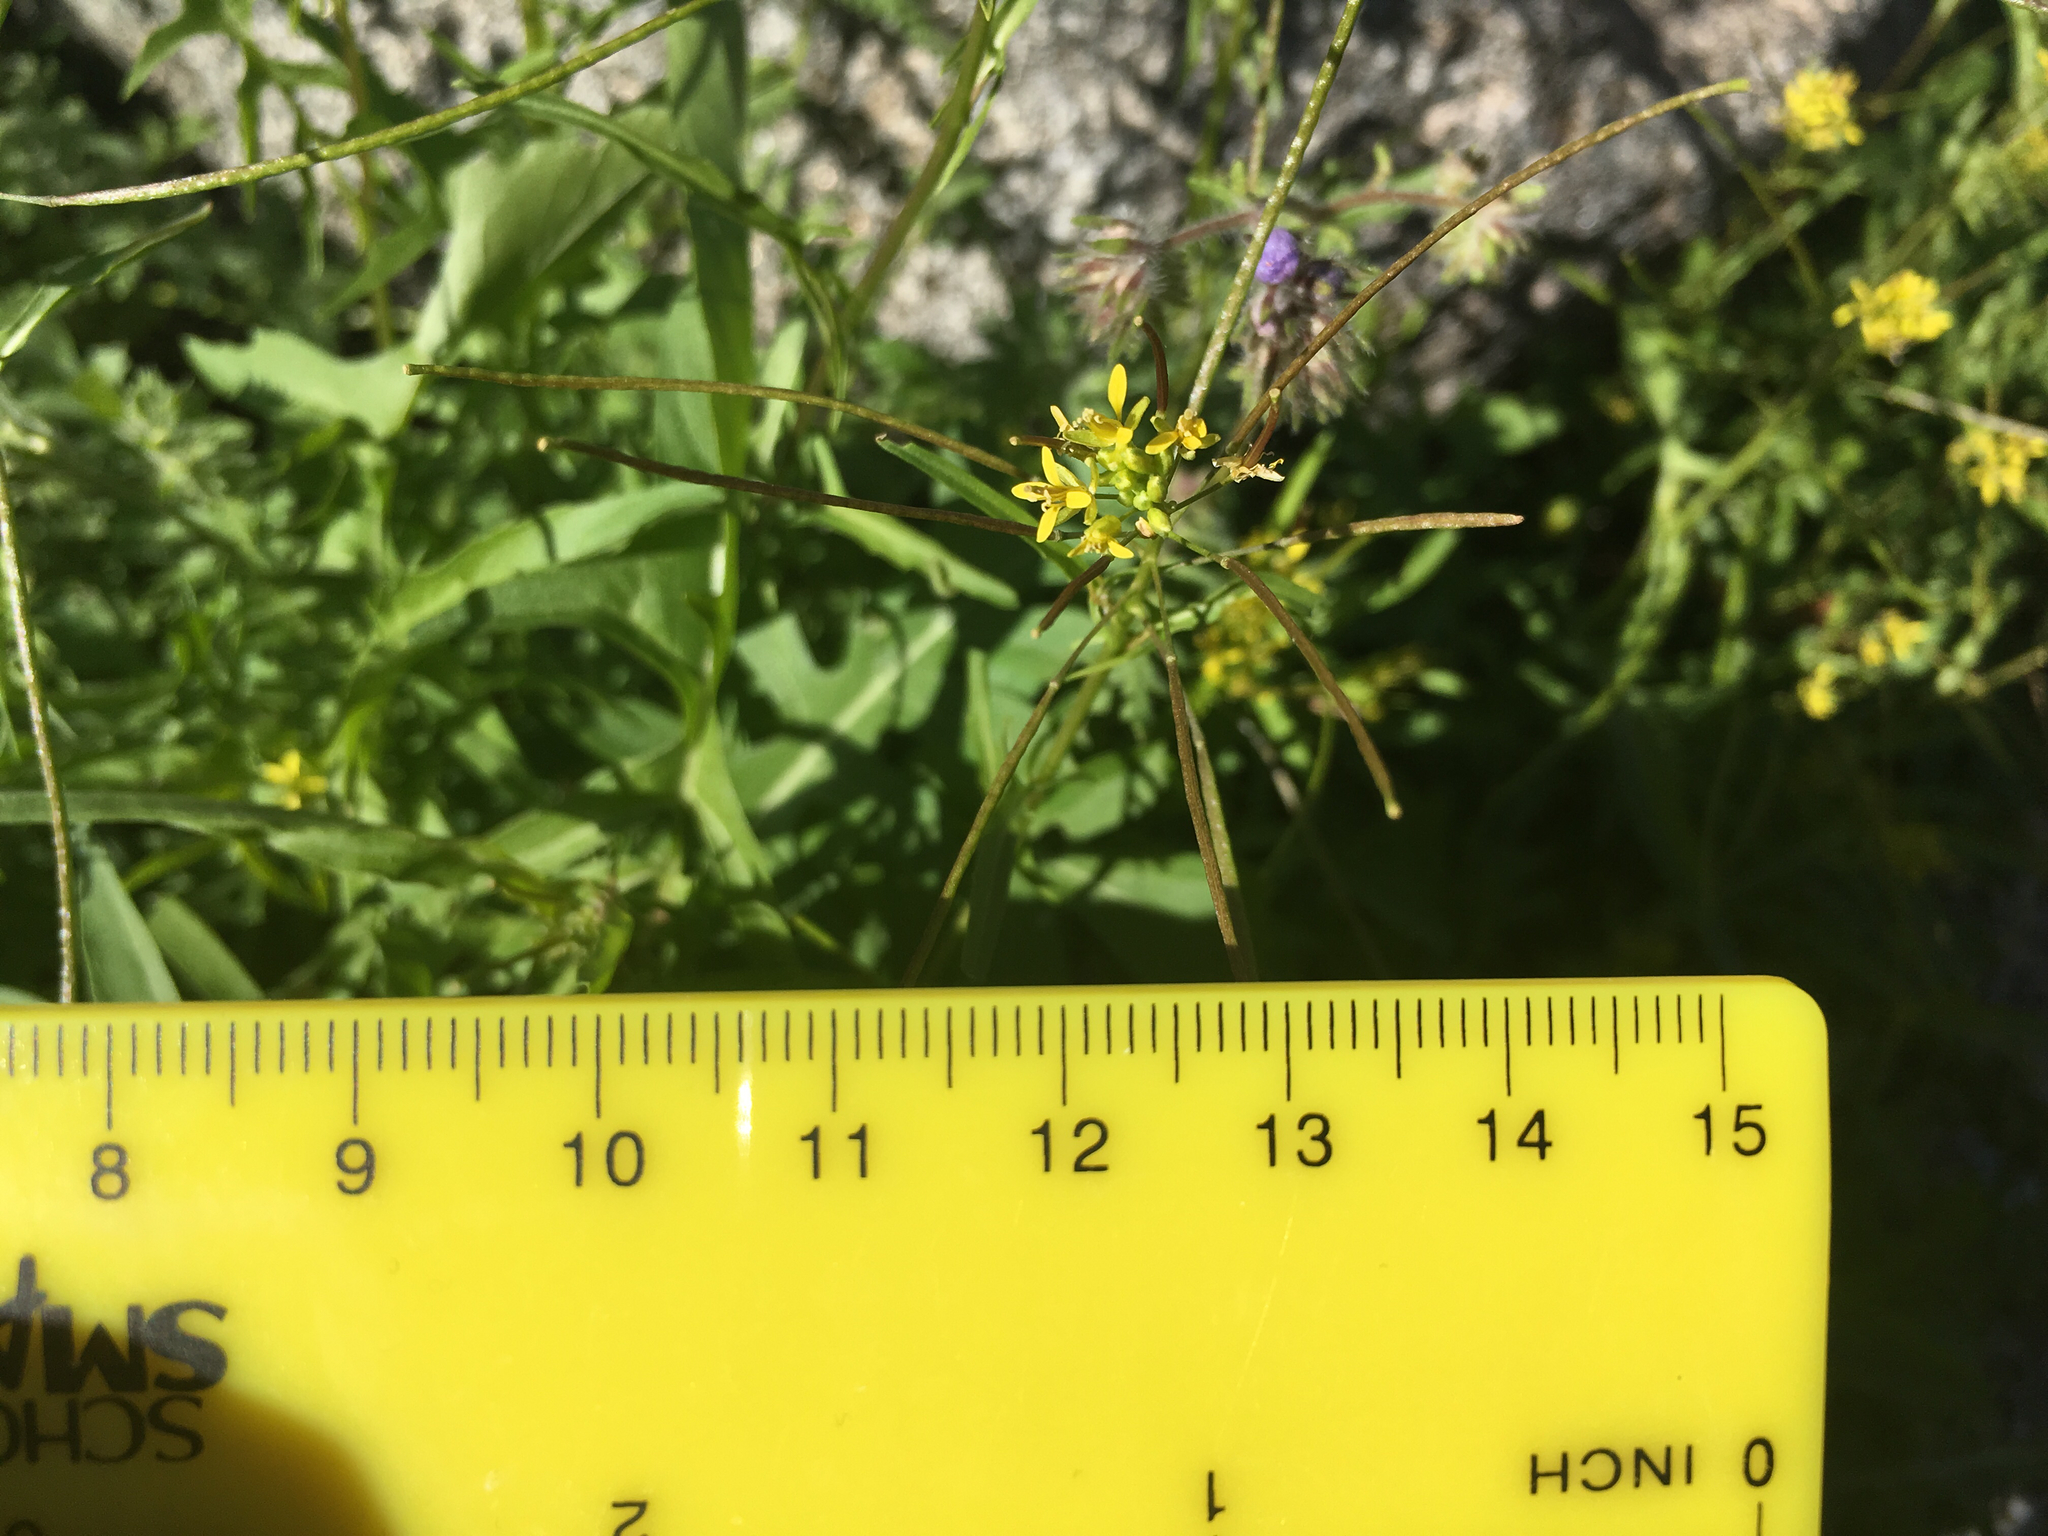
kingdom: Plantae
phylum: Tracheophyta
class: Magnoliopsida
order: Brassicales
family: Brassicaceae
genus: Sisymbrium
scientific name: Sisymbrium irio
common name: London rocket
